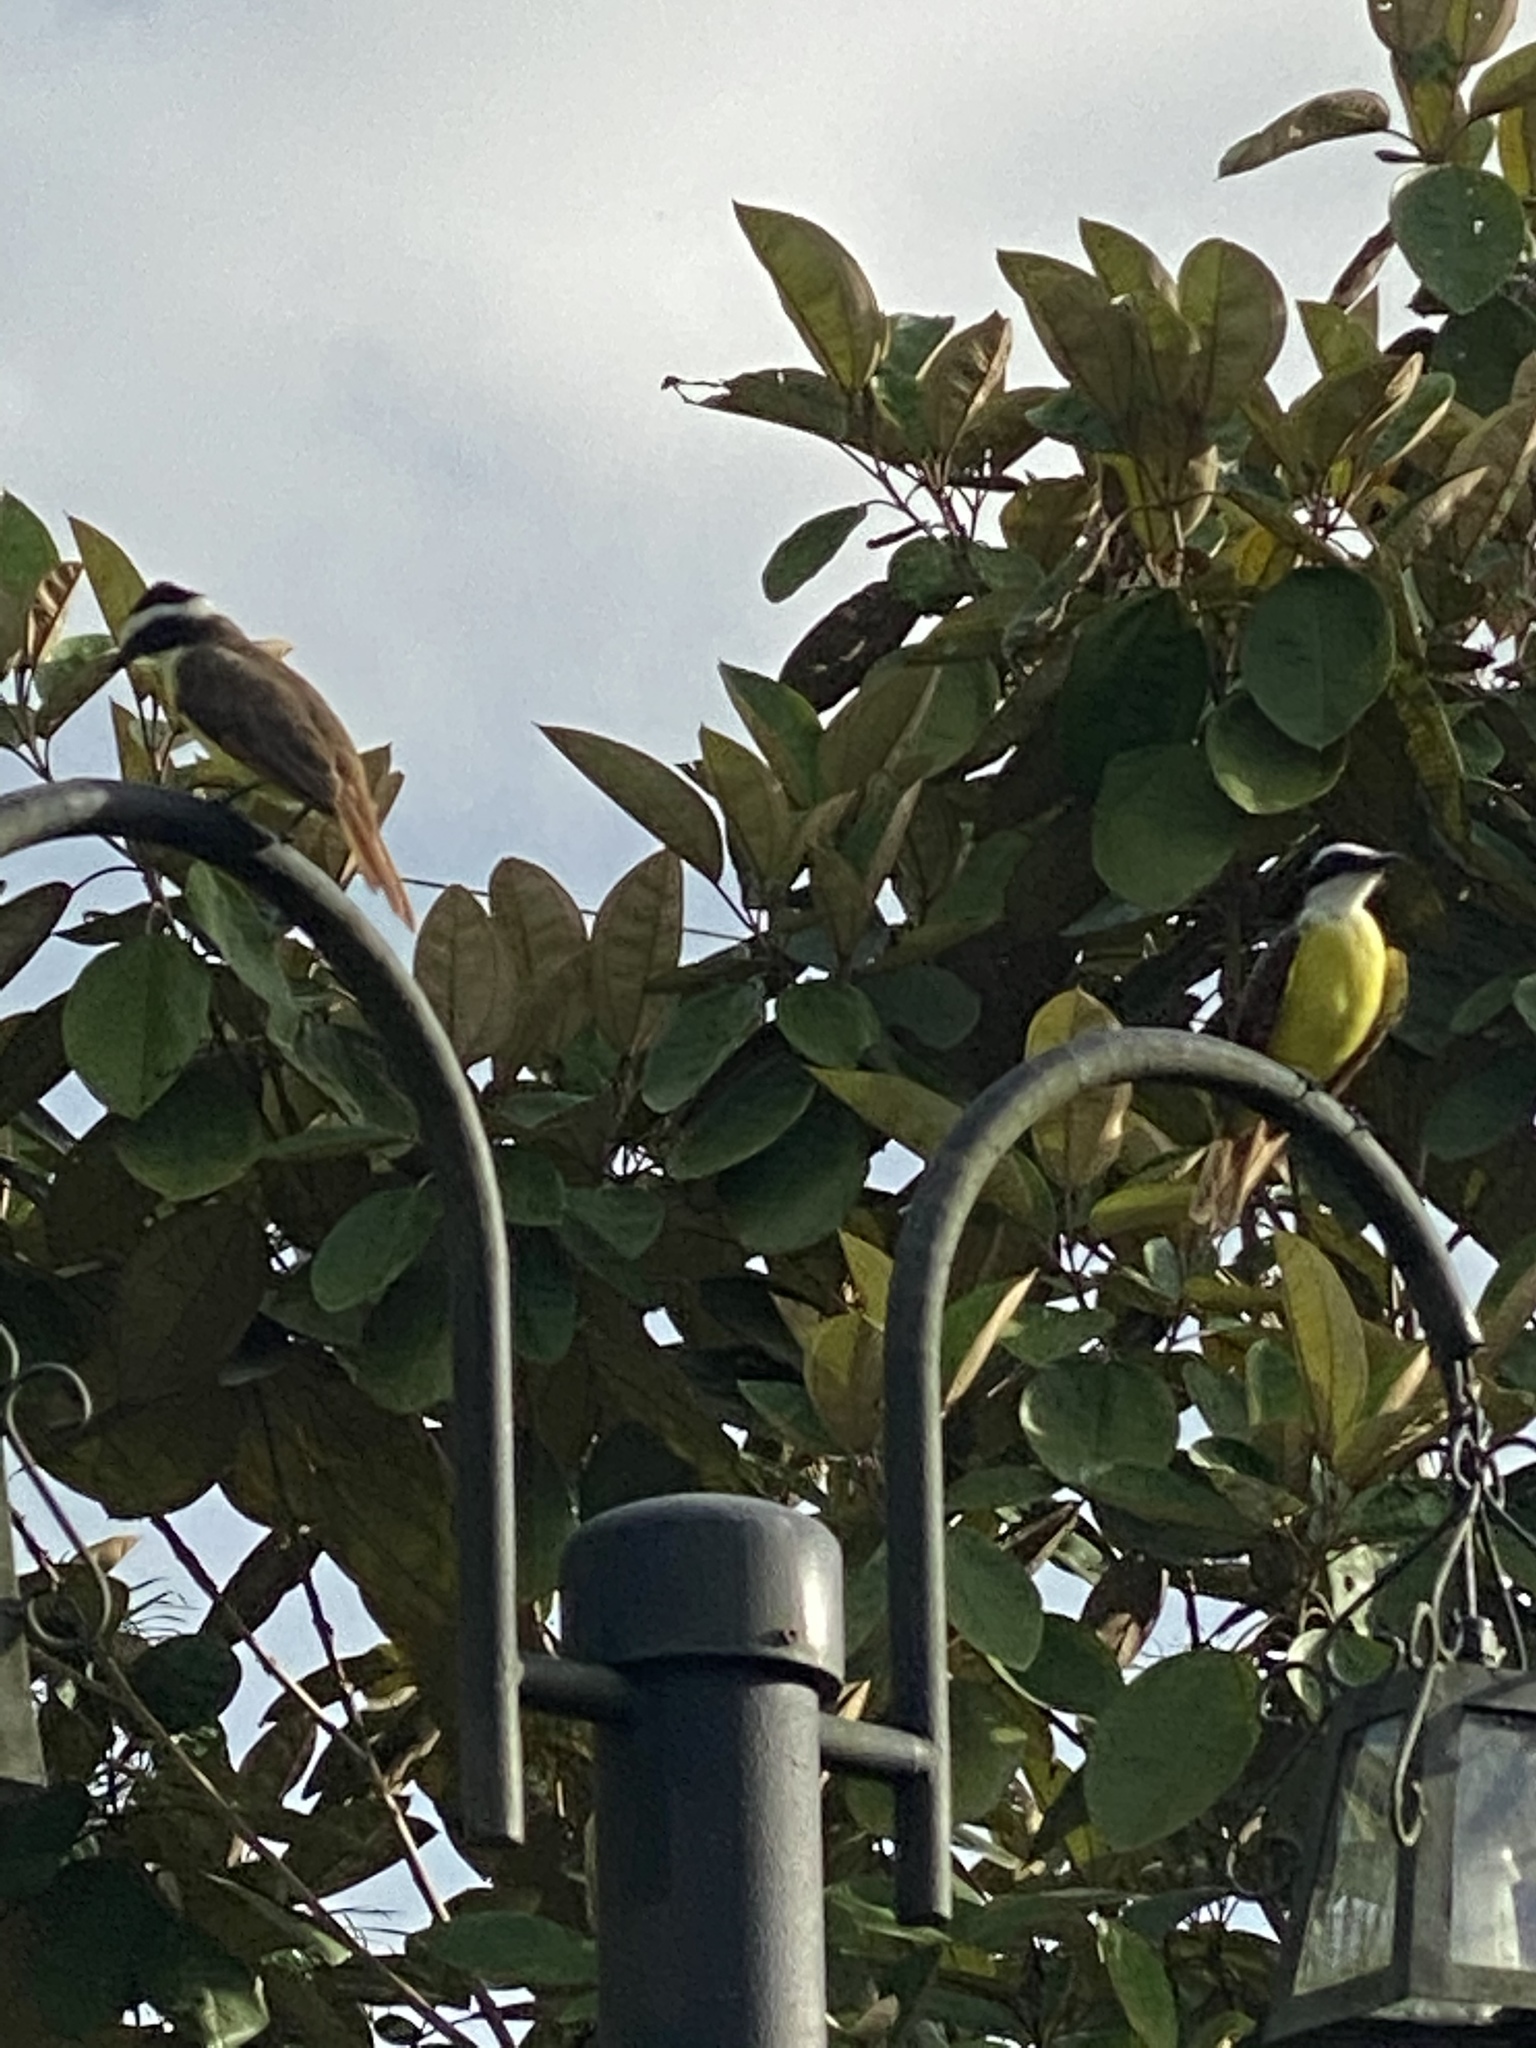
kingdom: Animalia
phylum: Chordata
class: Aves
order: Passeriformes
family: Tyrannidae
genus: Pitangus
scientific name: Pitangus sulphuratus
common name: Great kiskadee
